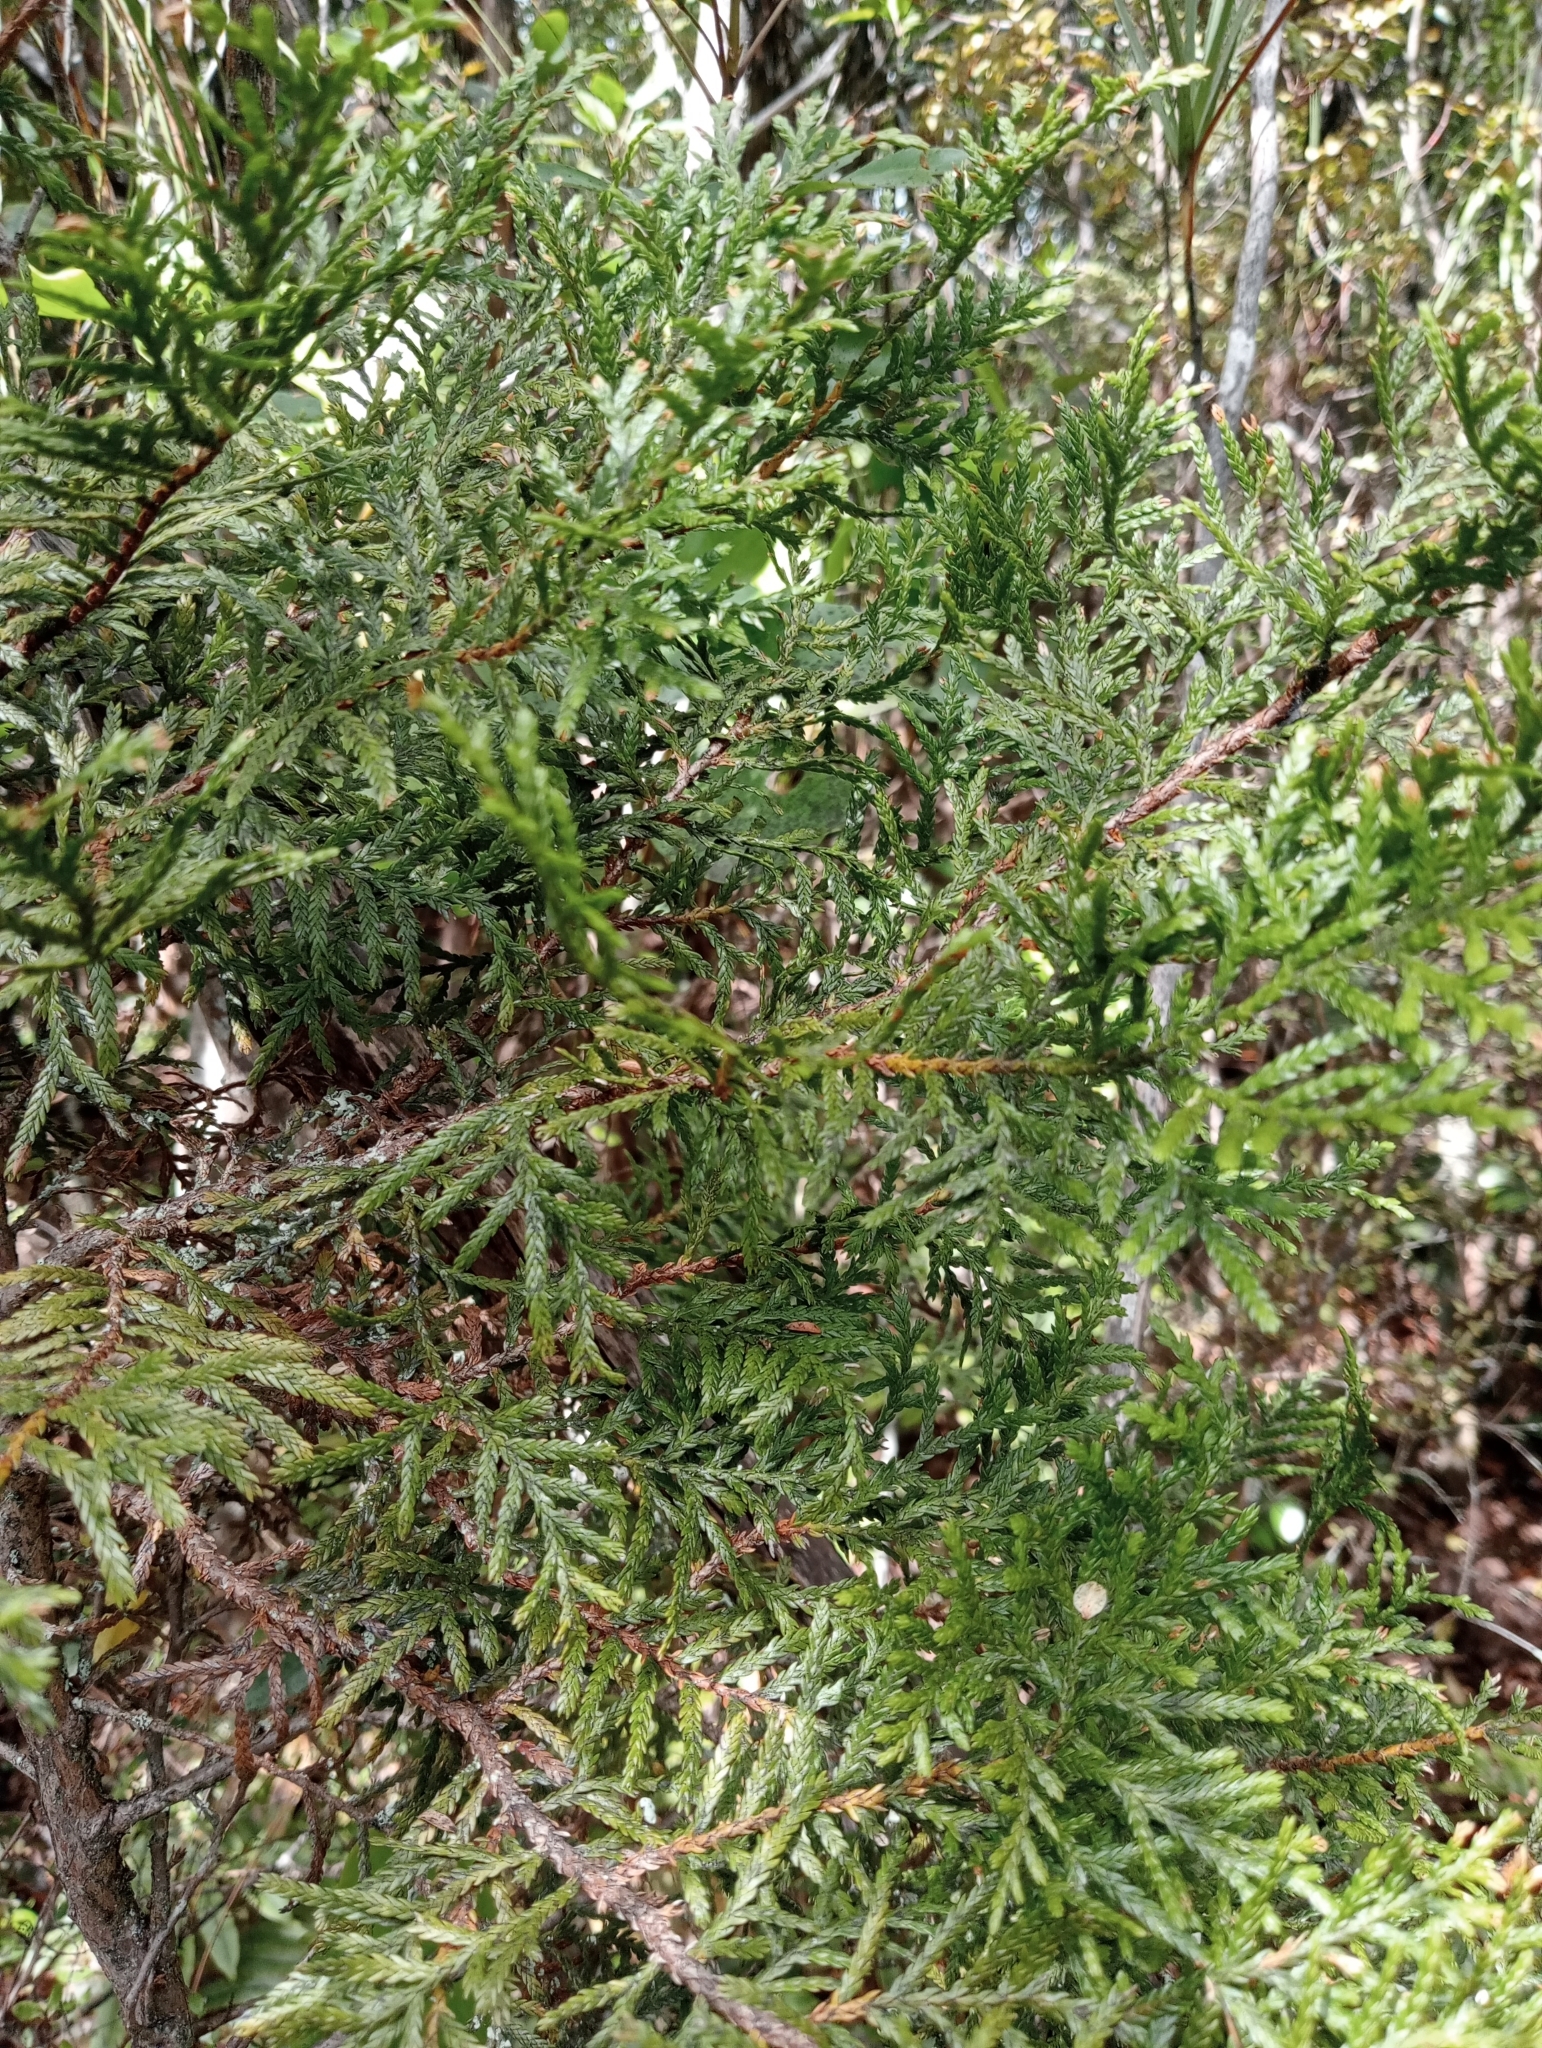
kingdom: Plantae
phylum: Tracheophyta
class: Pinopsida
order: Pinales
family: Cupressaceae
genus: Libocedrus
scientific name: Libocedrus bidwillii
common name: Cedar
